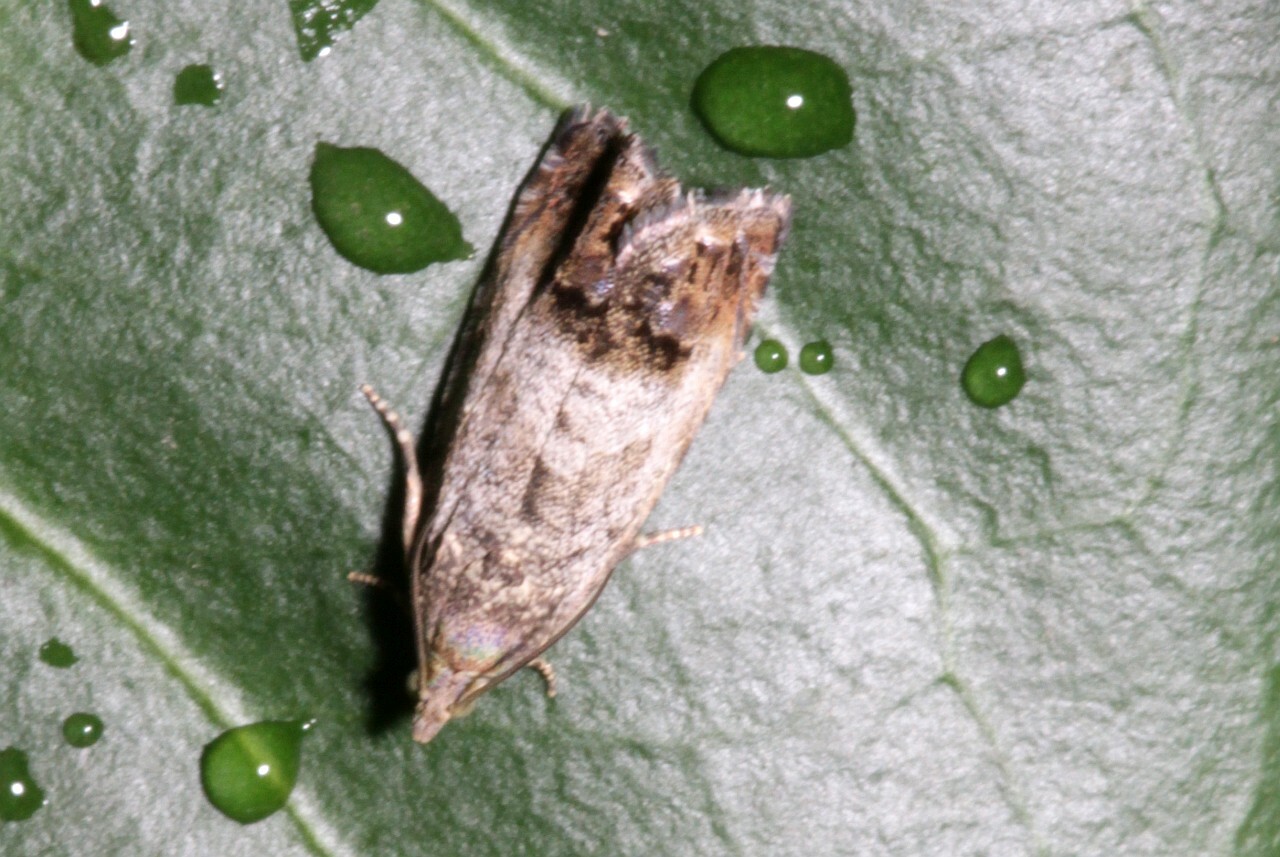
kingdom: Animalia
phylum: Arthropoda
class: Insecta
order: Lepidoptera
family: Tortricidae
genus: Cydia
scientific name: Cydia splendana
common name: De: kastanienwickler, eichenwickler es: oruga de la castaña fr: carpocapse des châtaignes it: cidia o tortrice tardiva delle castagne pt: bichado das castanhas gb: acorn moth, chestnut fruit tortrix
